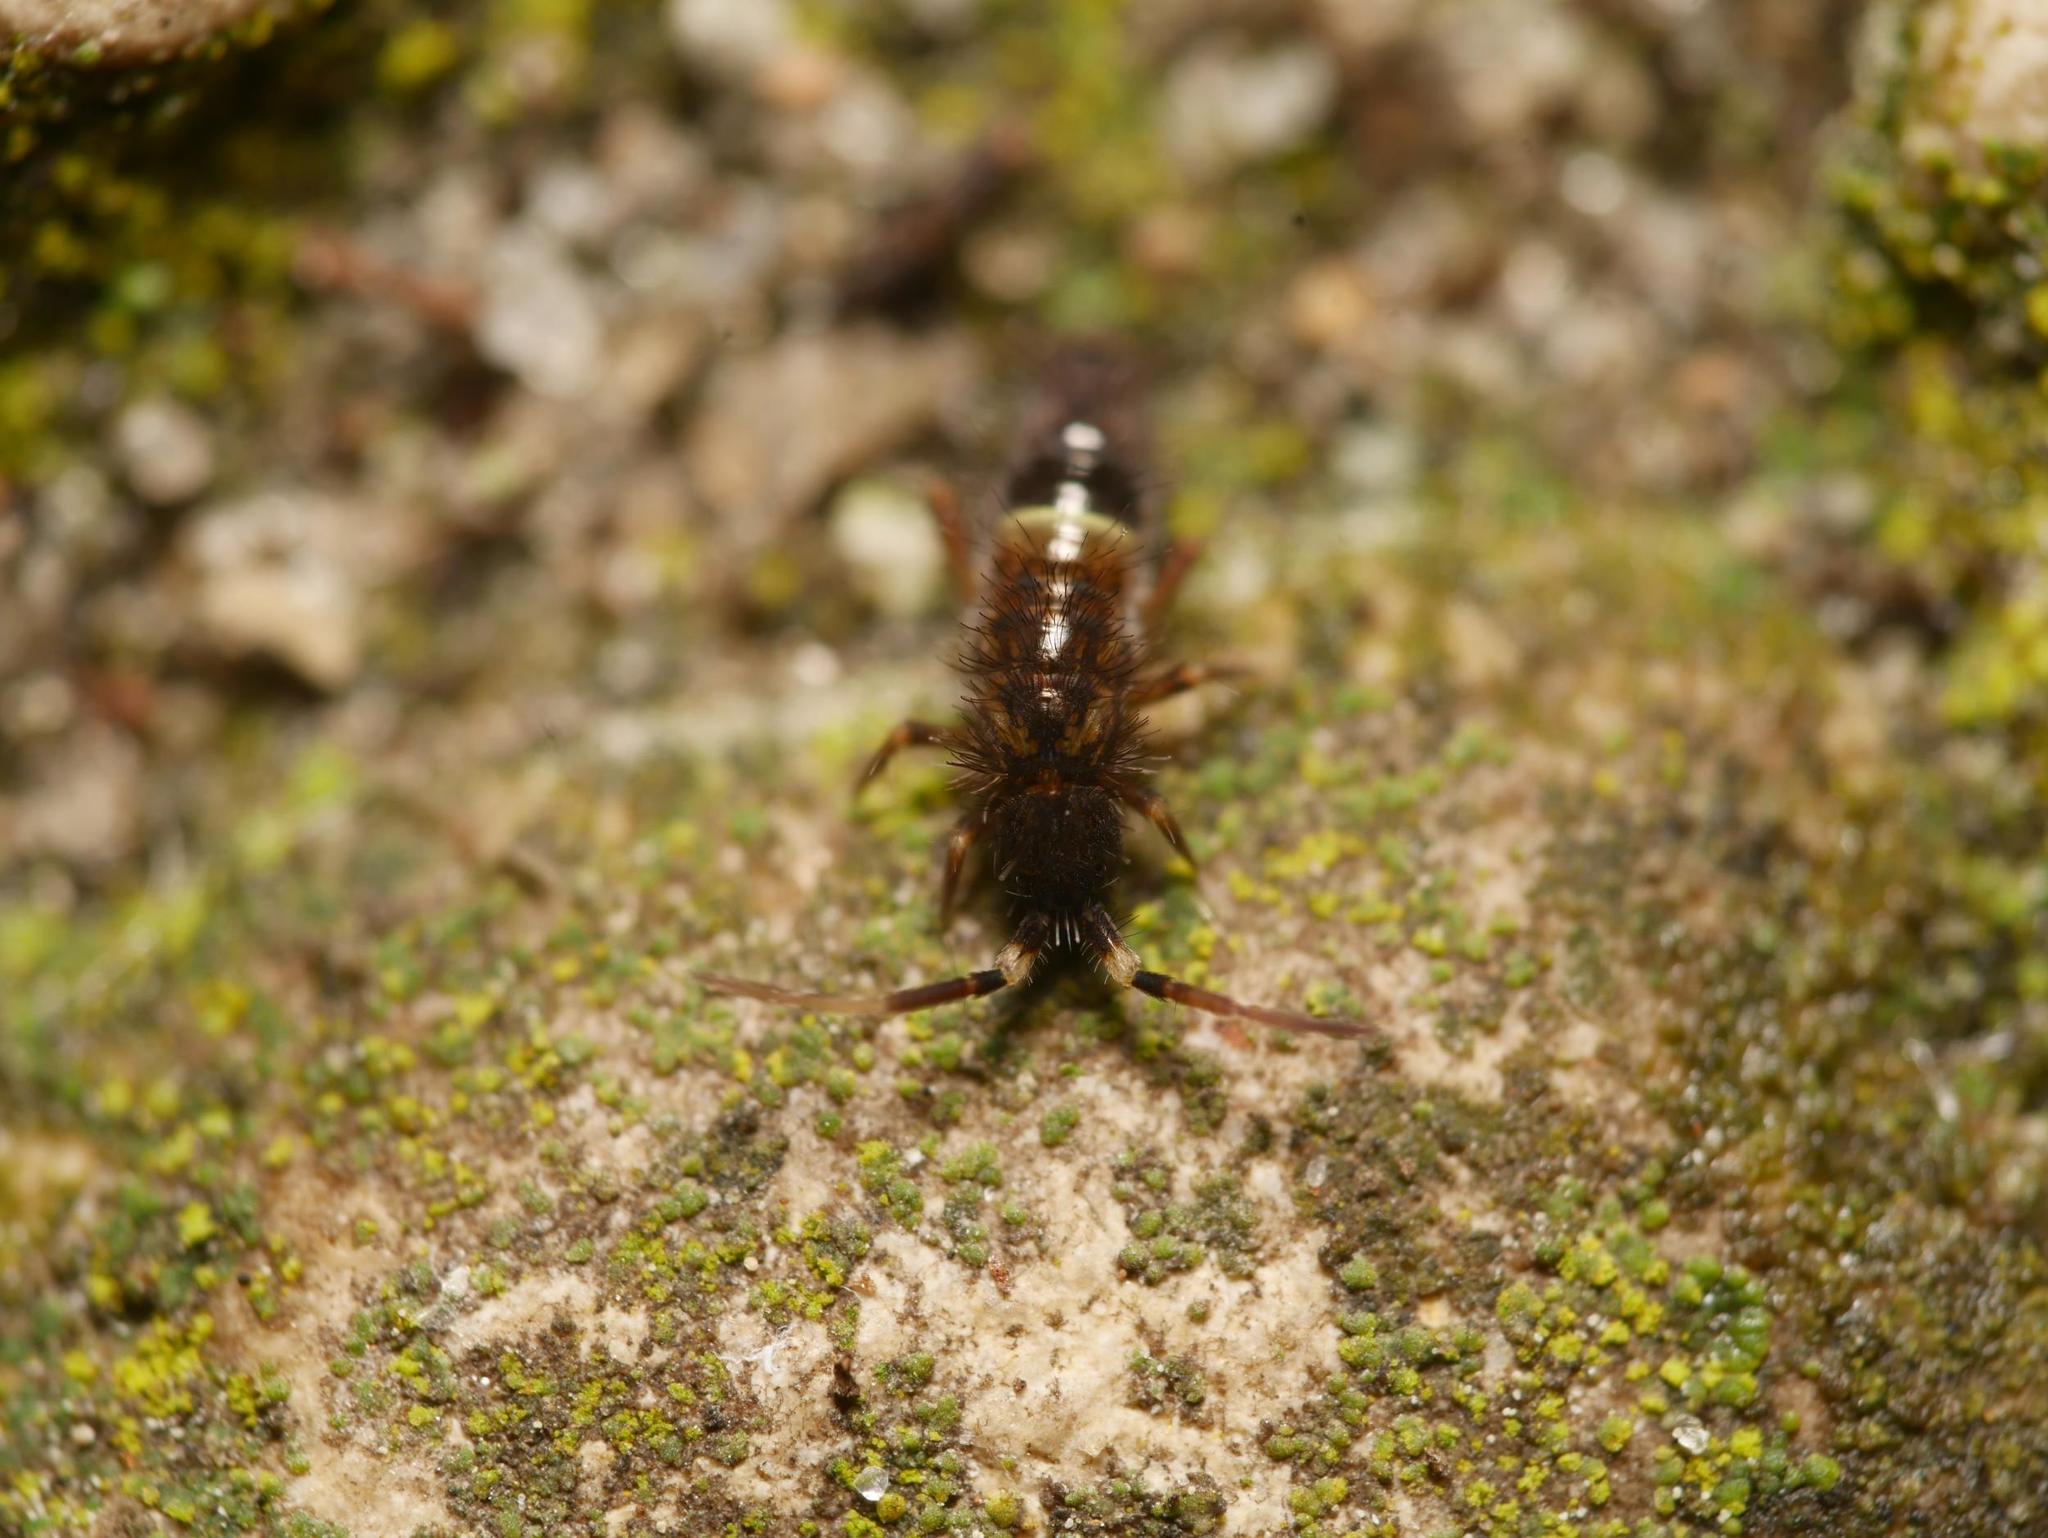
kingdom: Animalia
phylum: Arthropoda
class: Collembola
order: Entomobryomorpha
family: Orchesellidae
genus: Orchesella
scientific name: Orchesella cincta
